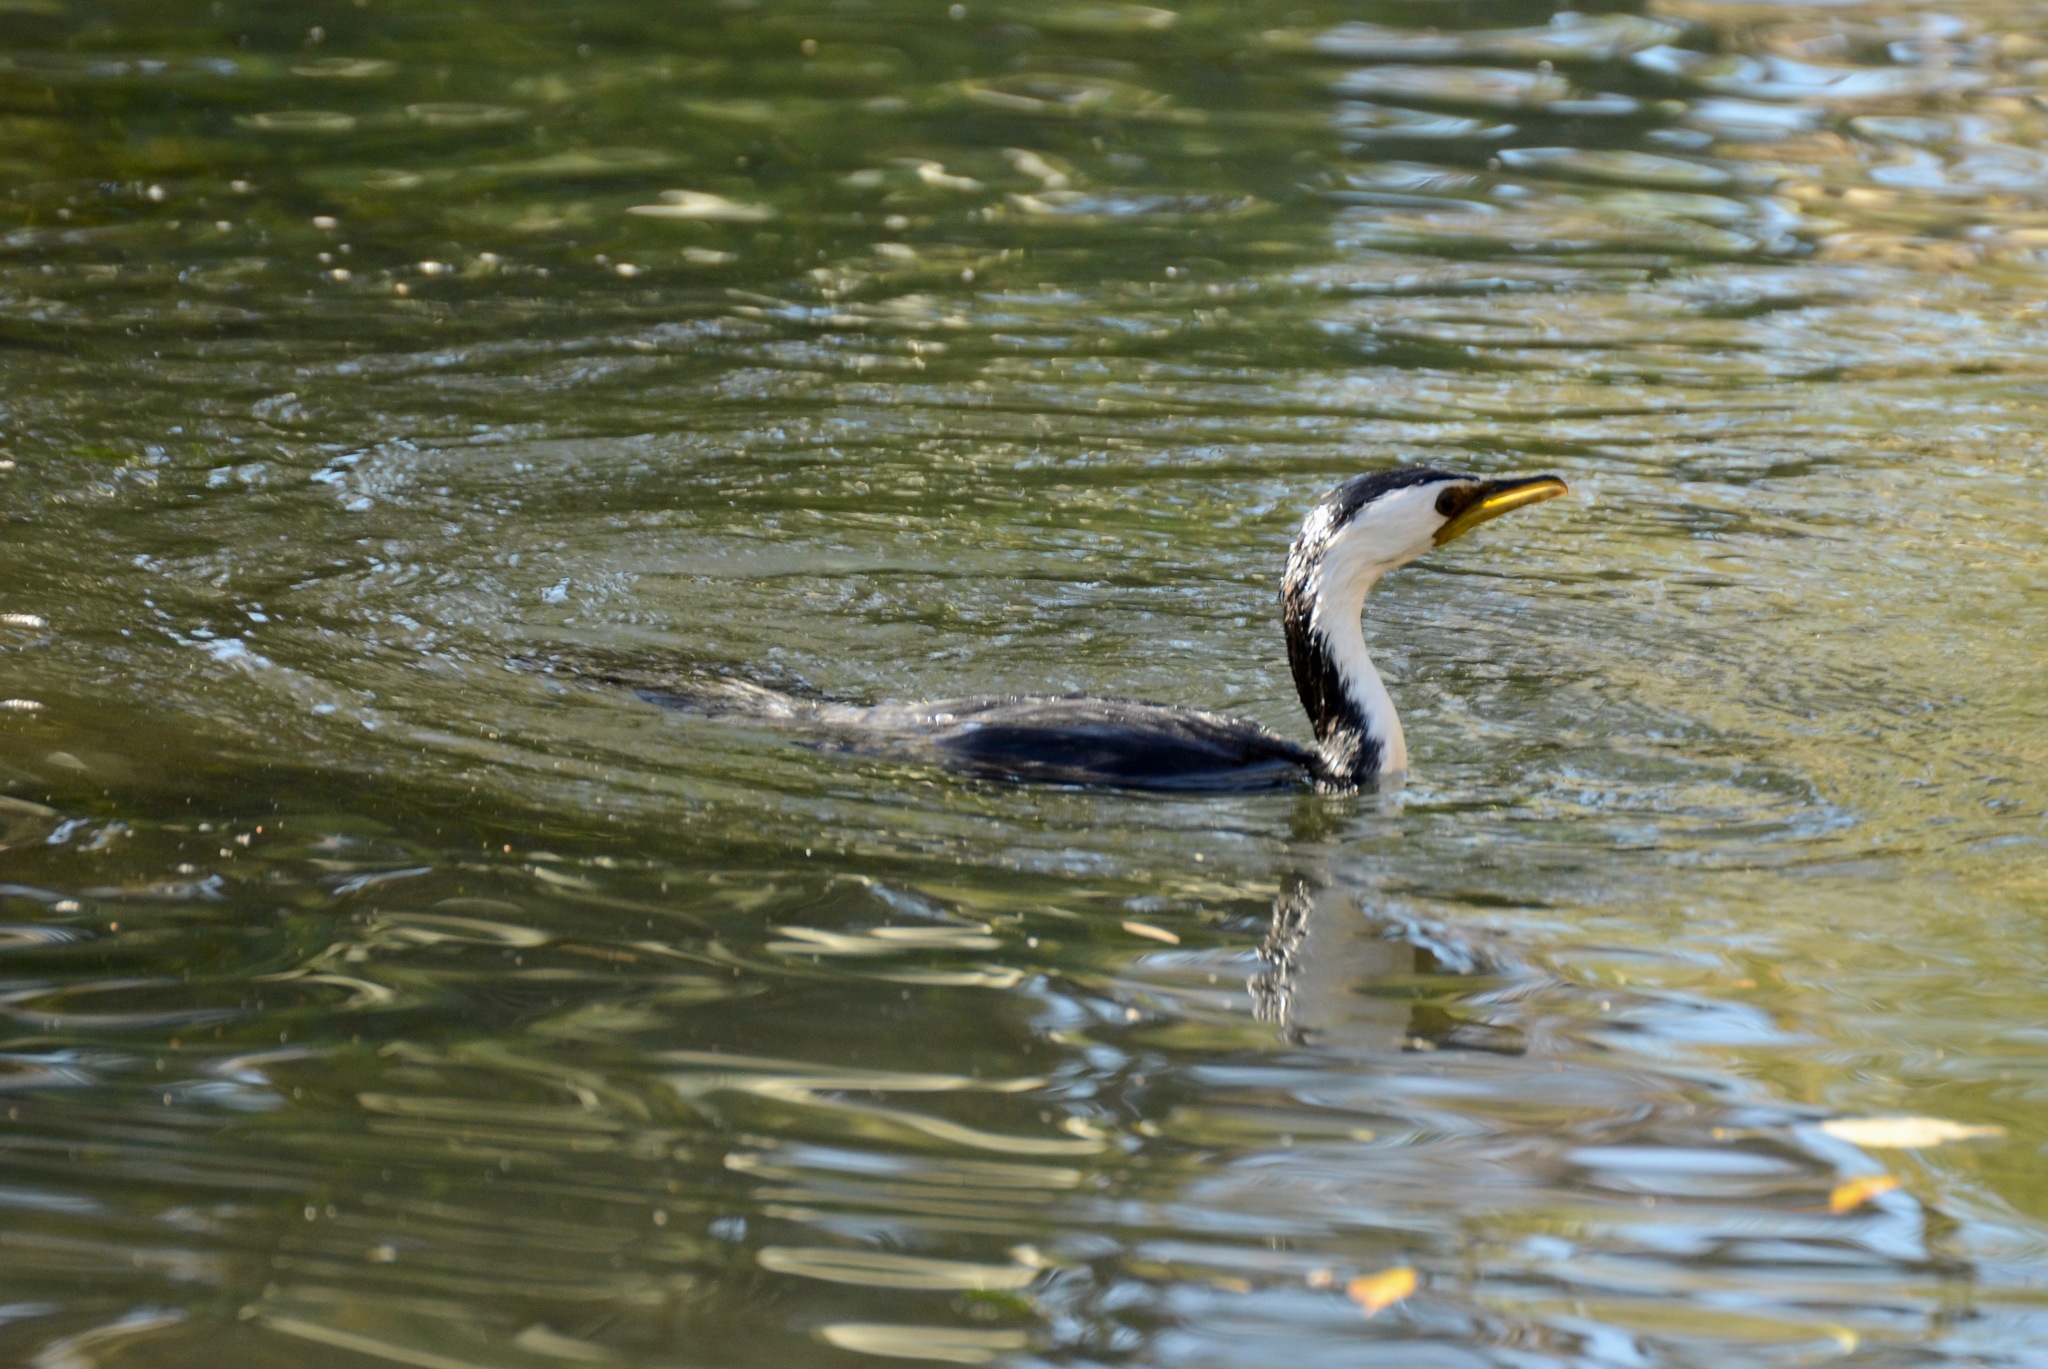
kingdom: Animalia
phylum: Chordata
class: Aves
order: Suliformes
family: Phalacrocoracidae
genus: Microcarbo
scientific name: Microcarbo melanoleucos
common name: Little pied cormorant
